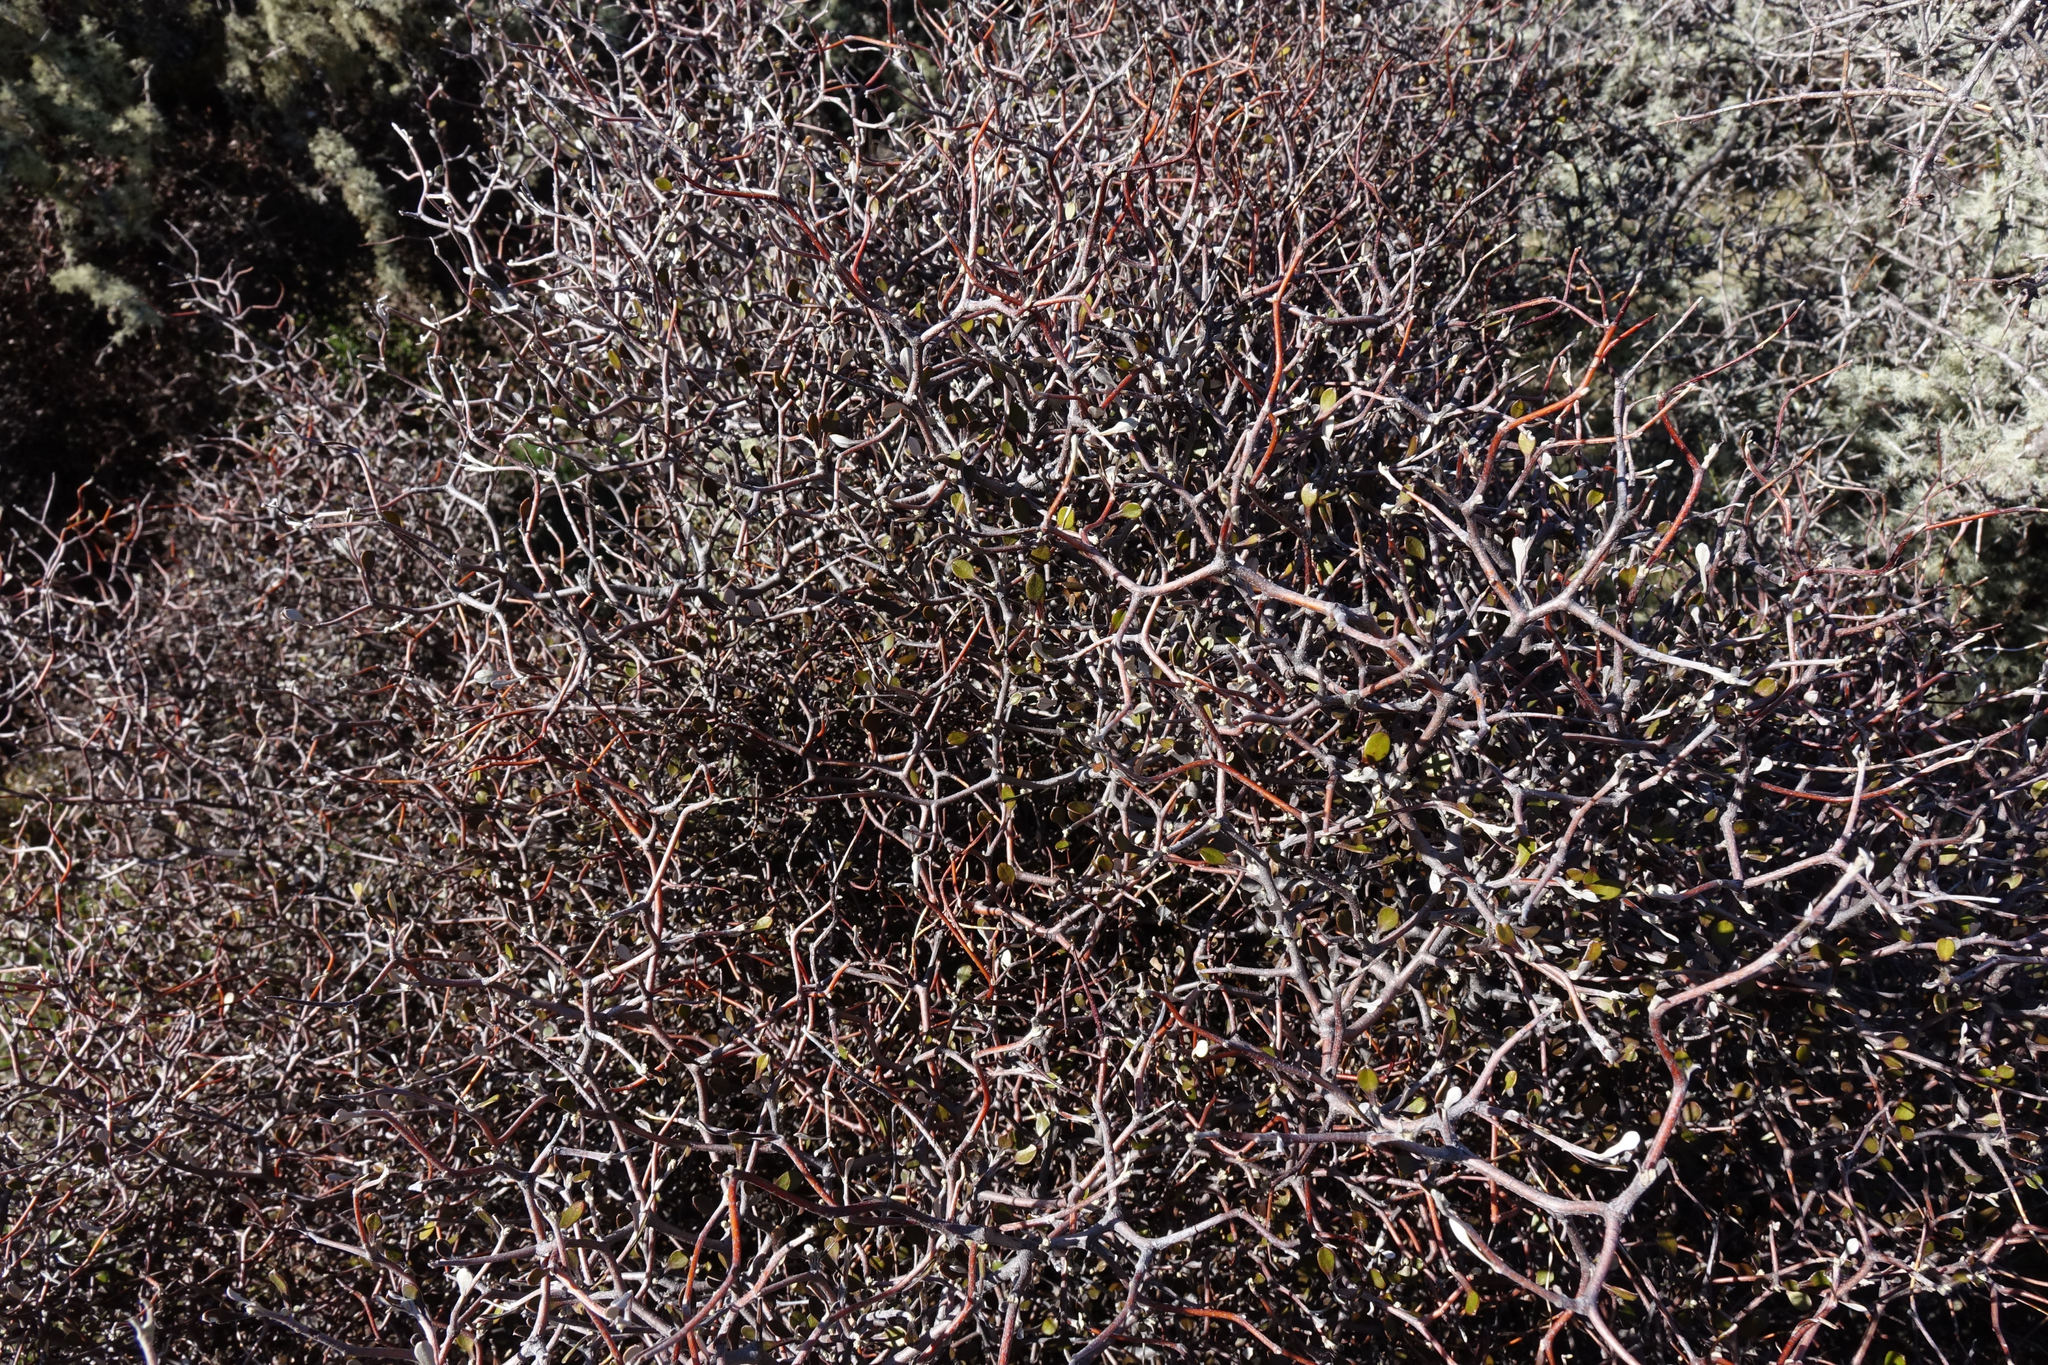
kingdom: Plantae
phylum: Tracheophyta
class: Magnoliopsida
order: Asterales
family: Argophyllaceae
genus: Corokia
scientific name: Corokia cotoneaster
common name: Wire nettingbush
